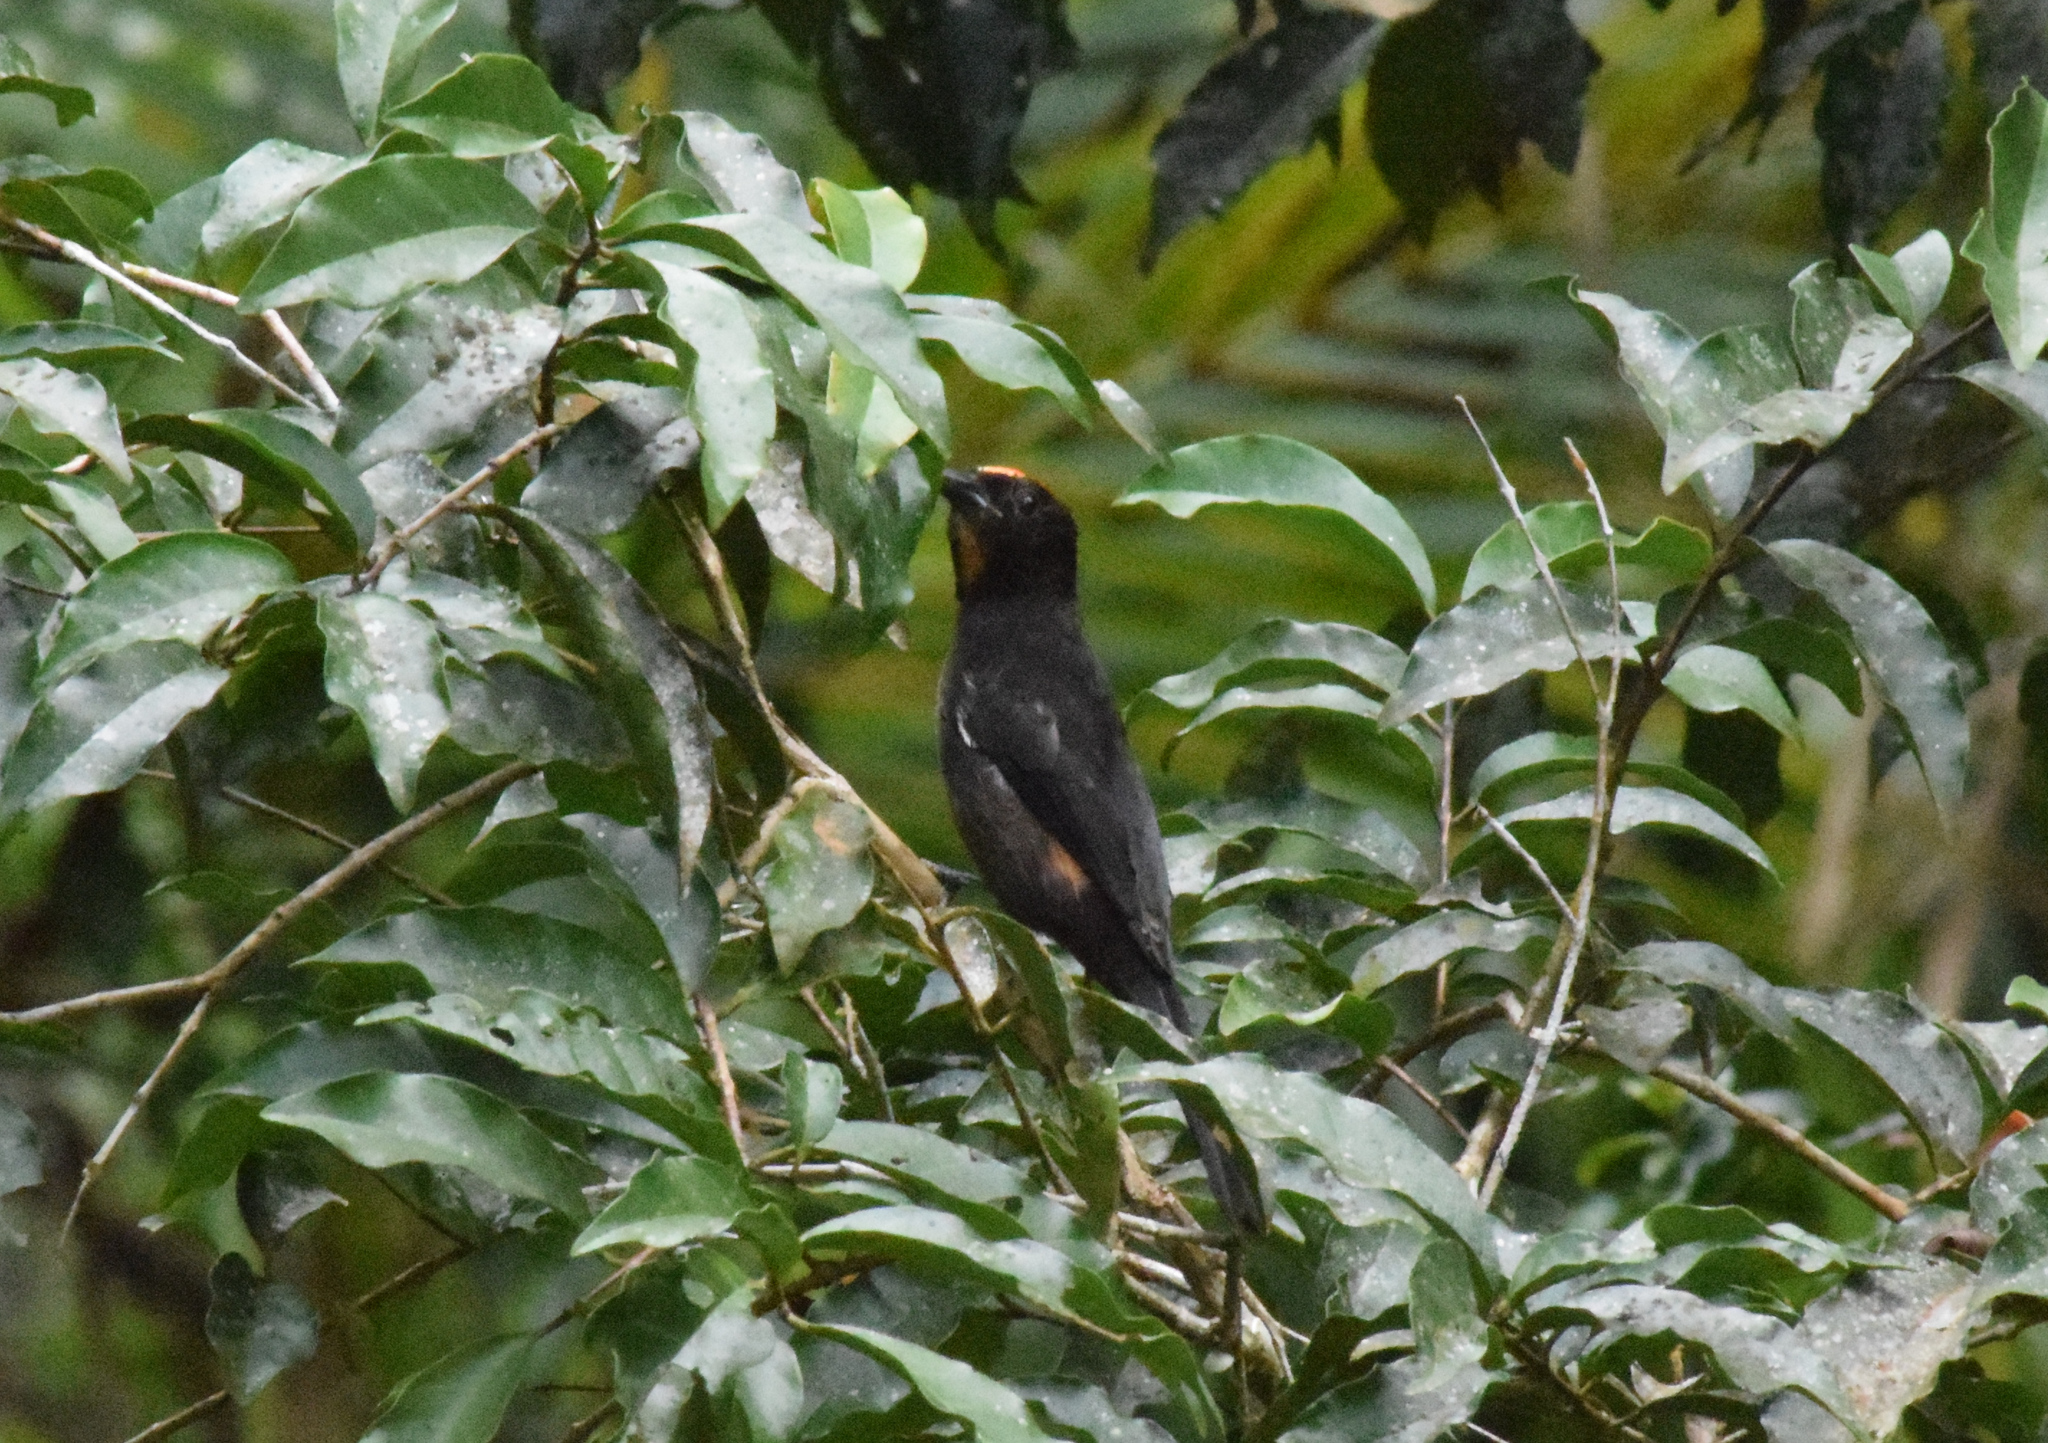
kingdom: Animalia
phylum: Chordata
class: Aves
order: Passeriformes
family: Thraupidae
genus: Loriotus
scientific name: Loriotus cristatus
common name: Flame-crested tanager
